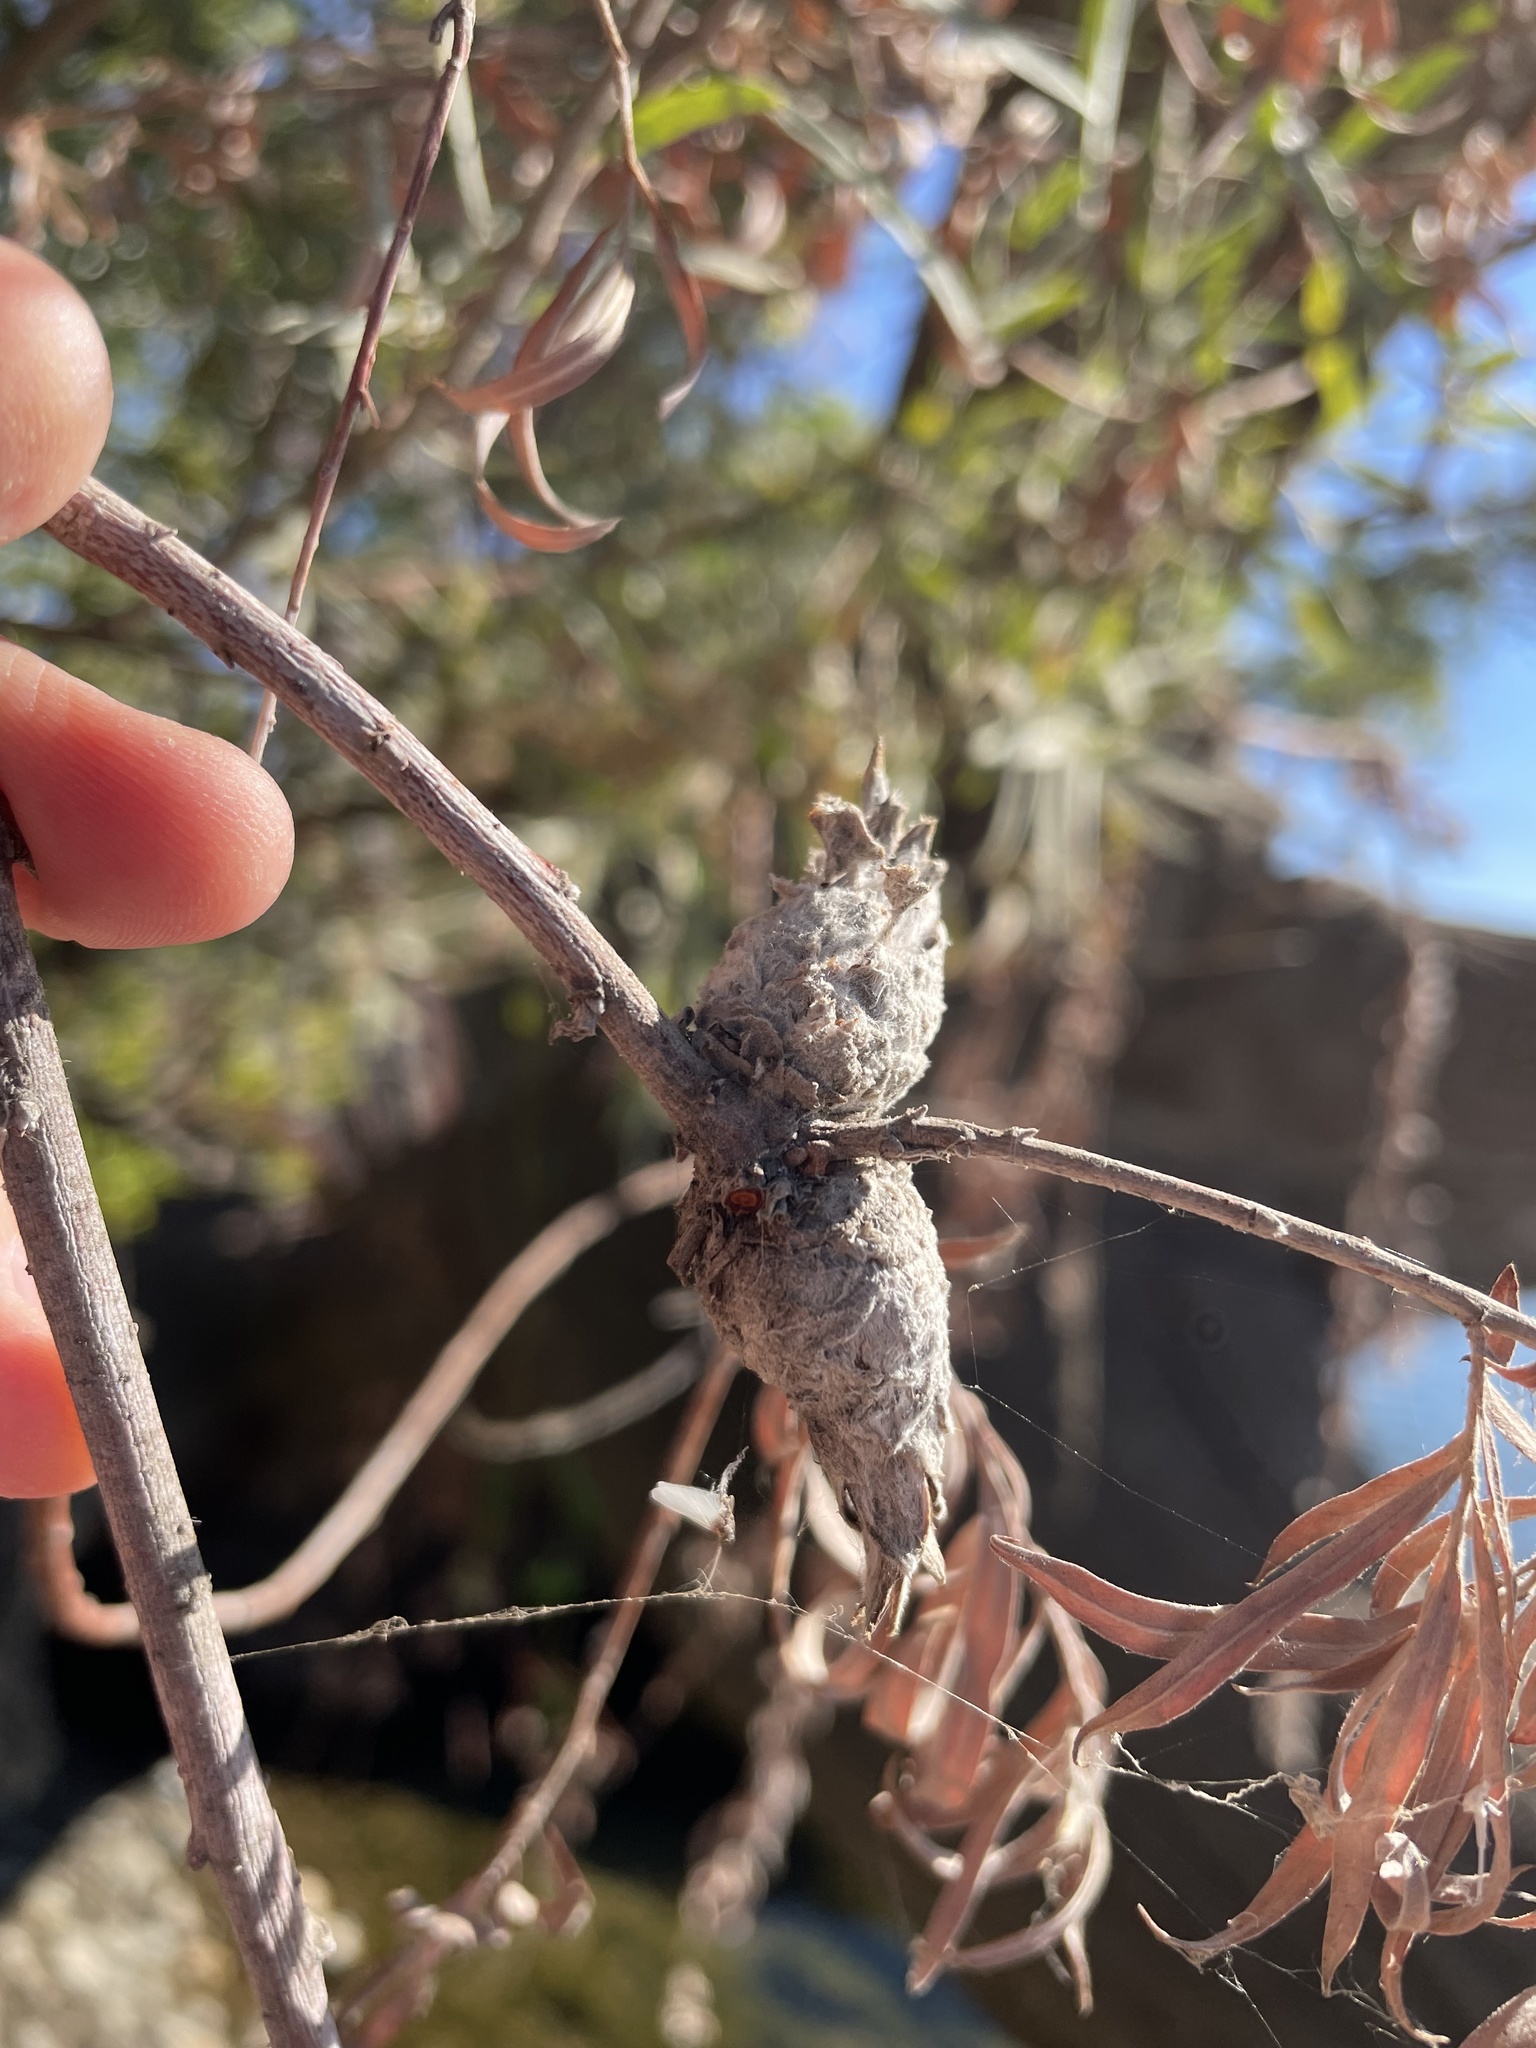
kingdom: Animalia
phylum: Arthropoda
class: Insecta
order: Diptera
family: Cecidomyiidae
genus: Rabdophaga
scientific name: Rabdophaga strobiloides
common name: Willow pinecone gall midge
